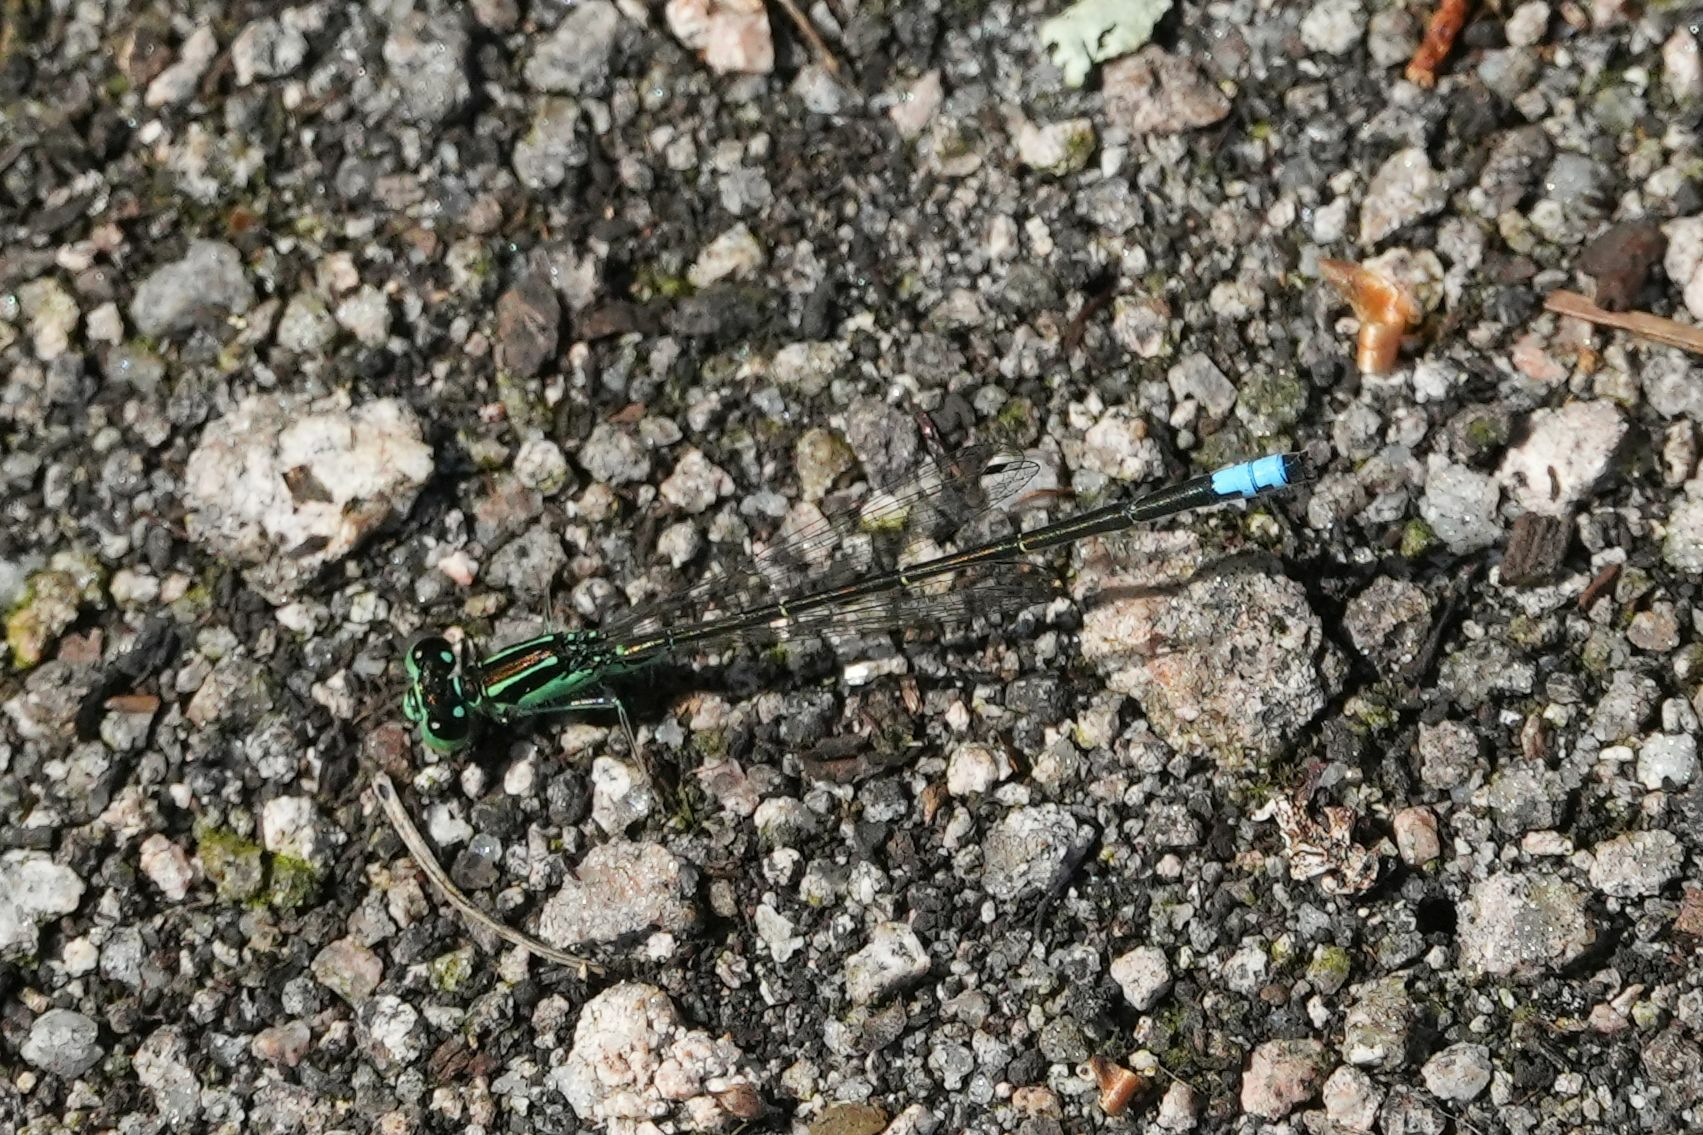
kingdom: Animalia
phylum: Arthropoda
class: Insecta
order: Odonata
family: Coenagrionidae
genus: Ischnura
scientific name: Ischnura verticalis
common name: Eastern forktail
